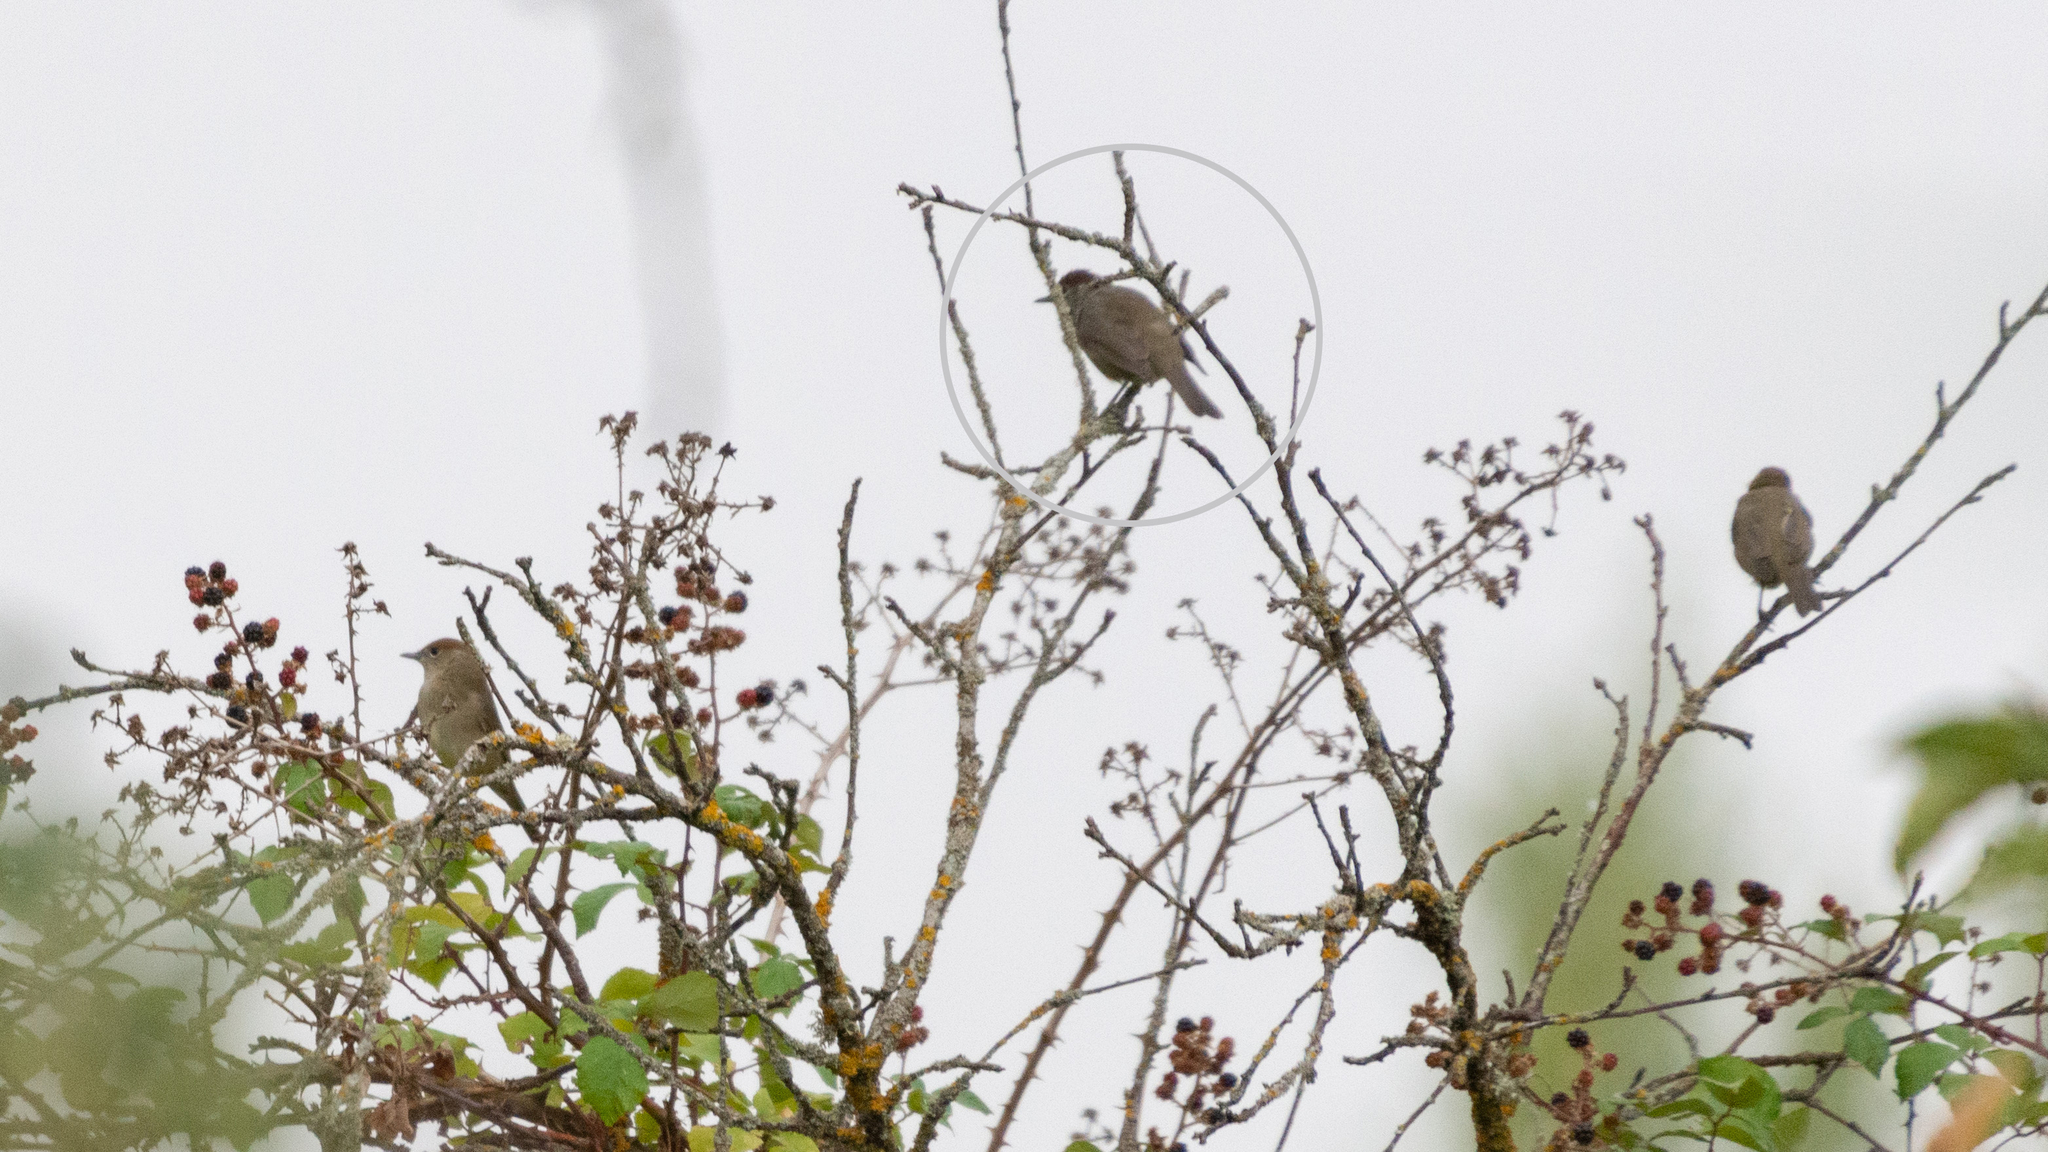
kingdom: Animalia
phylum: Chordata
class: Aves
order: Passeriformes
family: Sylviidae
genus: Sylvia
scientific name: Sylvia atricapilla
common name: Eurasian blackcap
